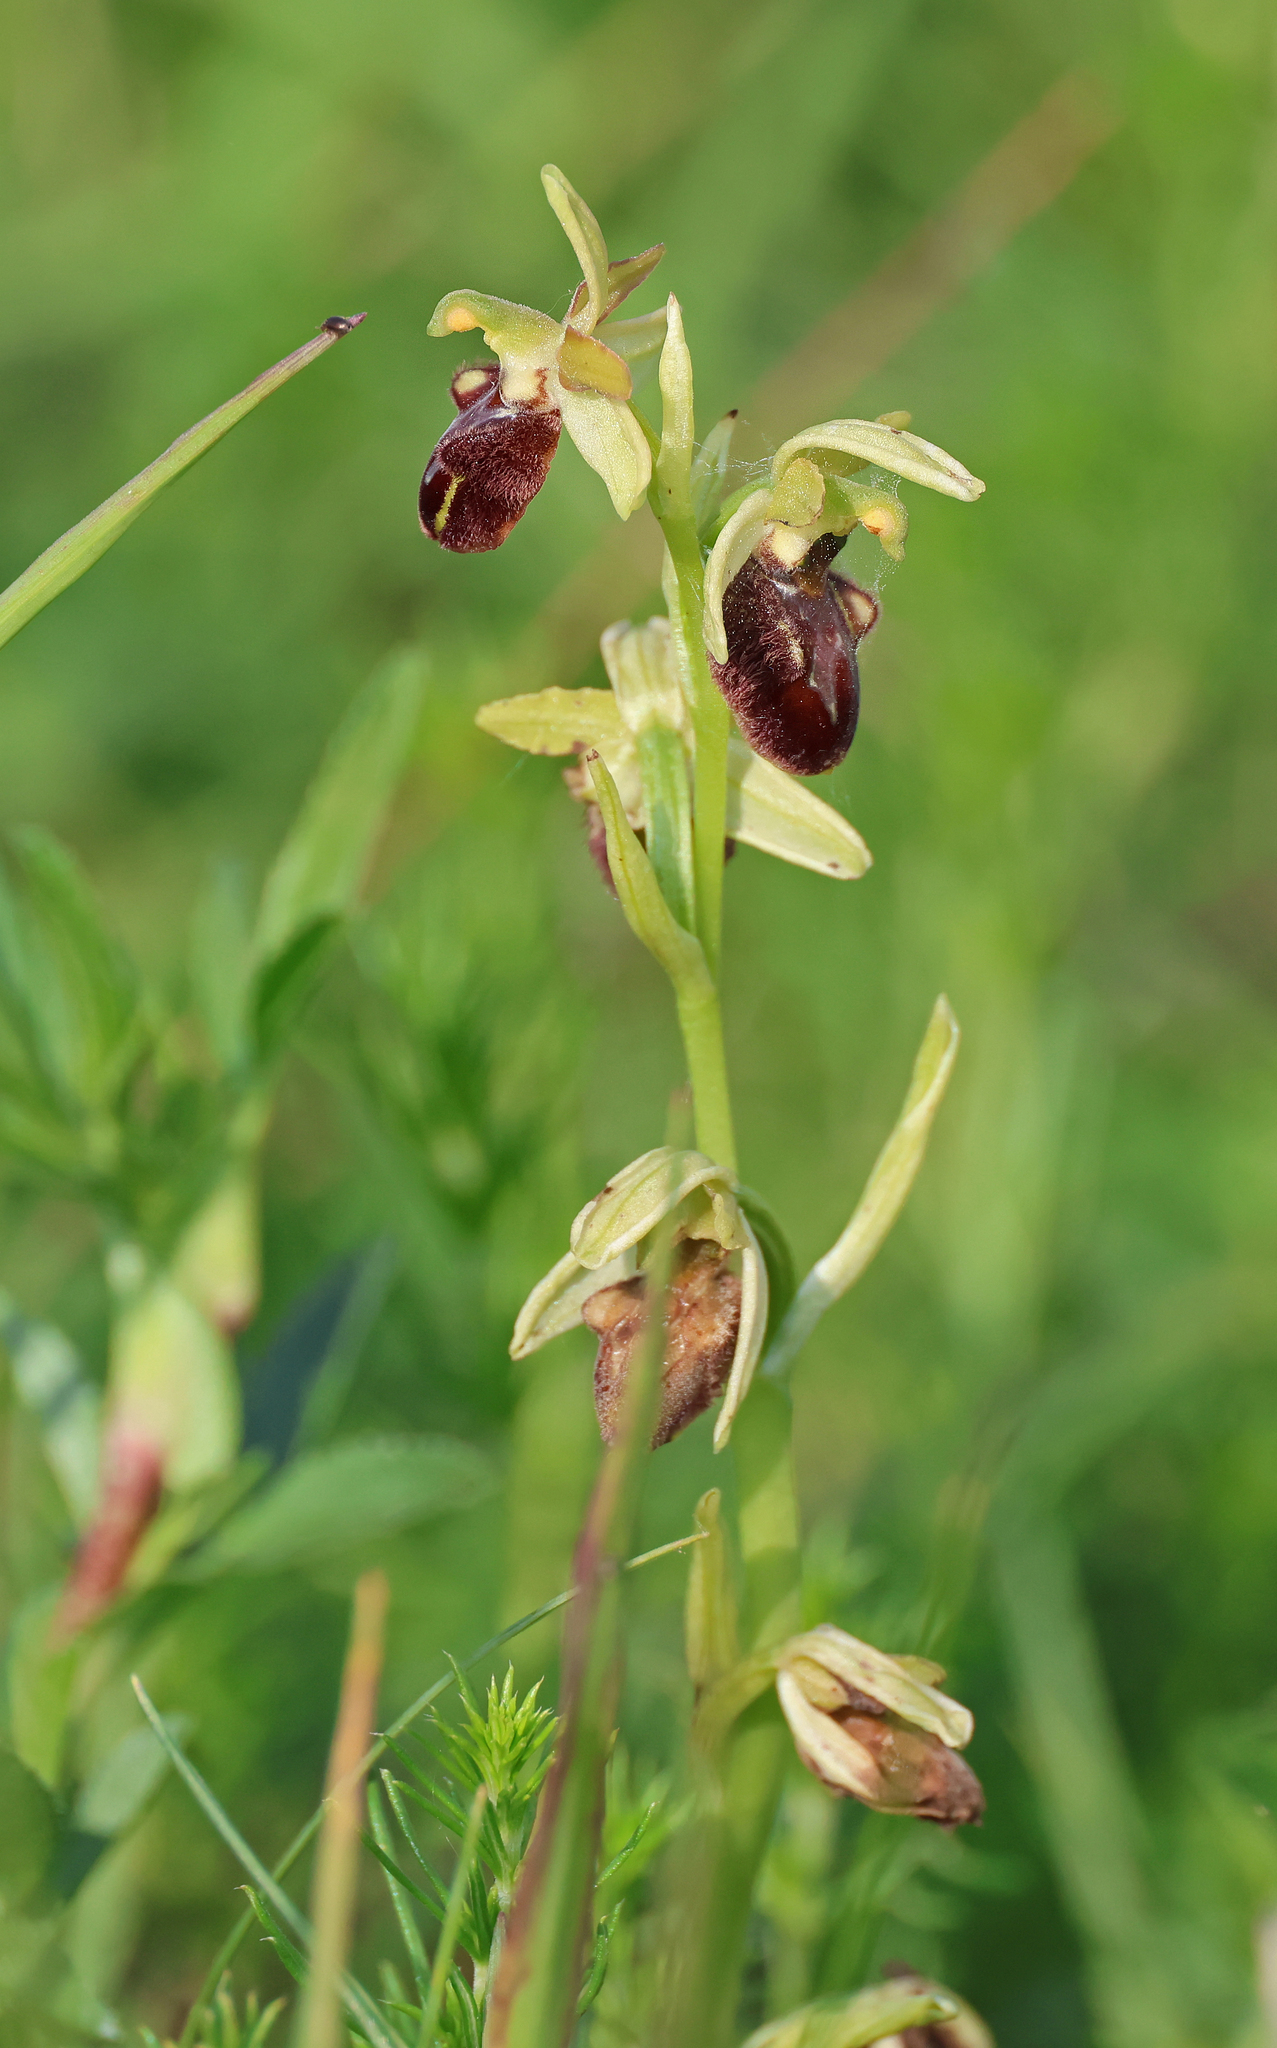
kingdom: Plantae
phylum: Tracheophyta
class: Liliopsida
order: Asparagales
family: Orchidaceae
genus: Ophrys
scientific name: Ophrys sphegodes
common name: Early spider-orchid
